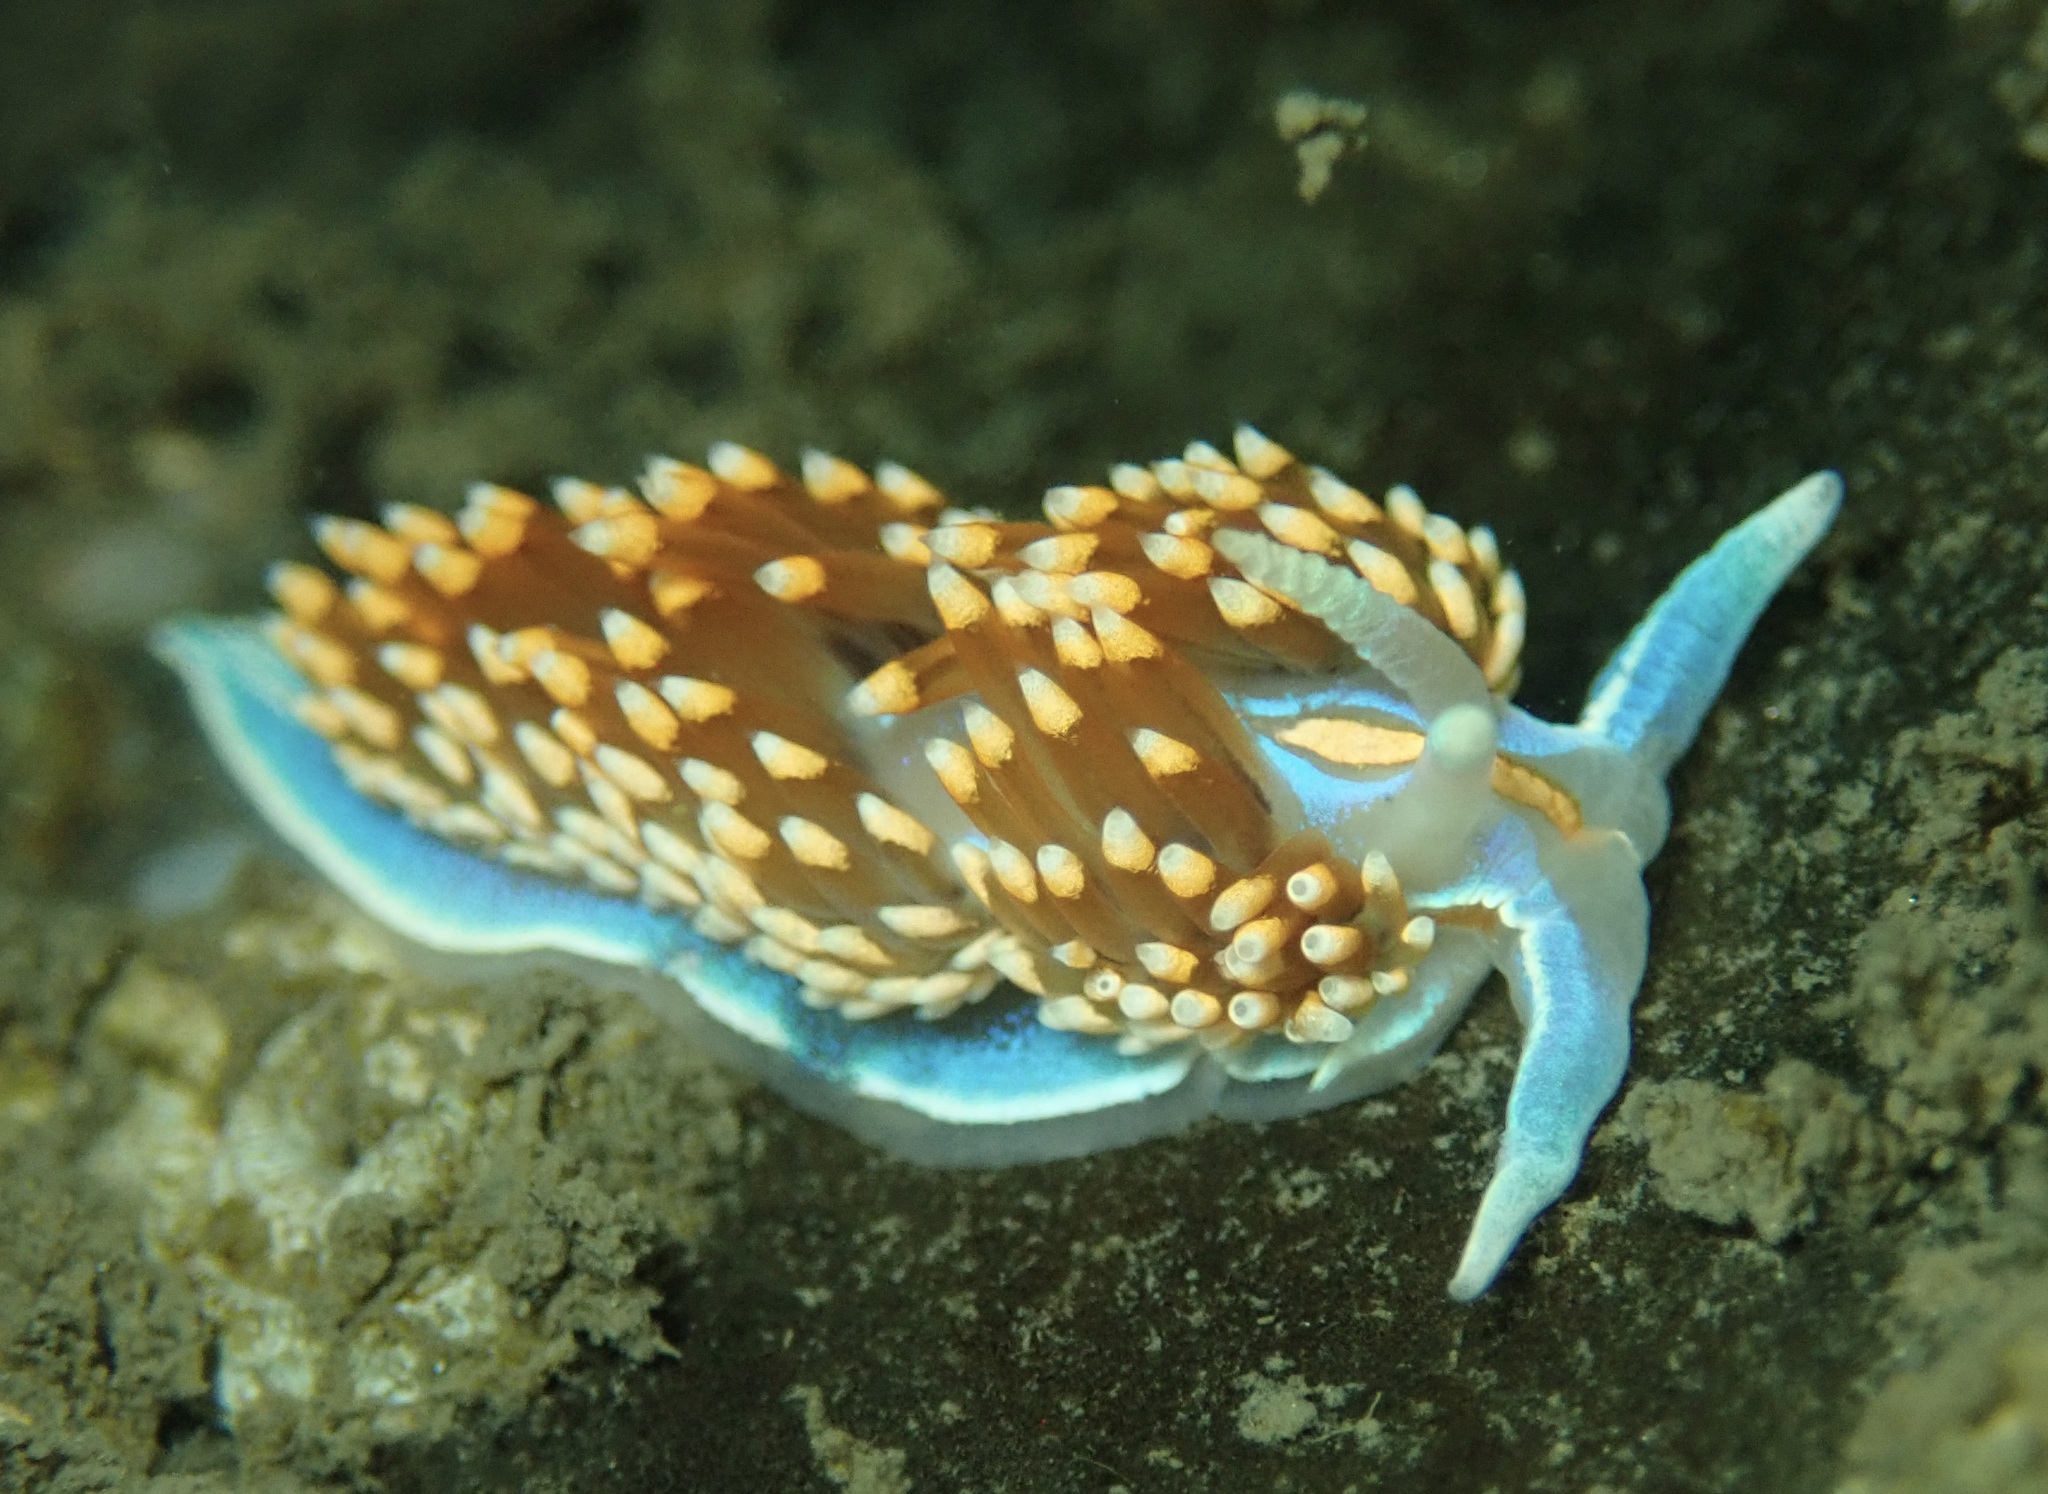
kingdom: Animalia
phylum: Mollusca
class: Gastropoda
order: Nudibranchia
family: Myrrhinidae
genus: Hermissenda
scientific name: Hermissenda opalescens
